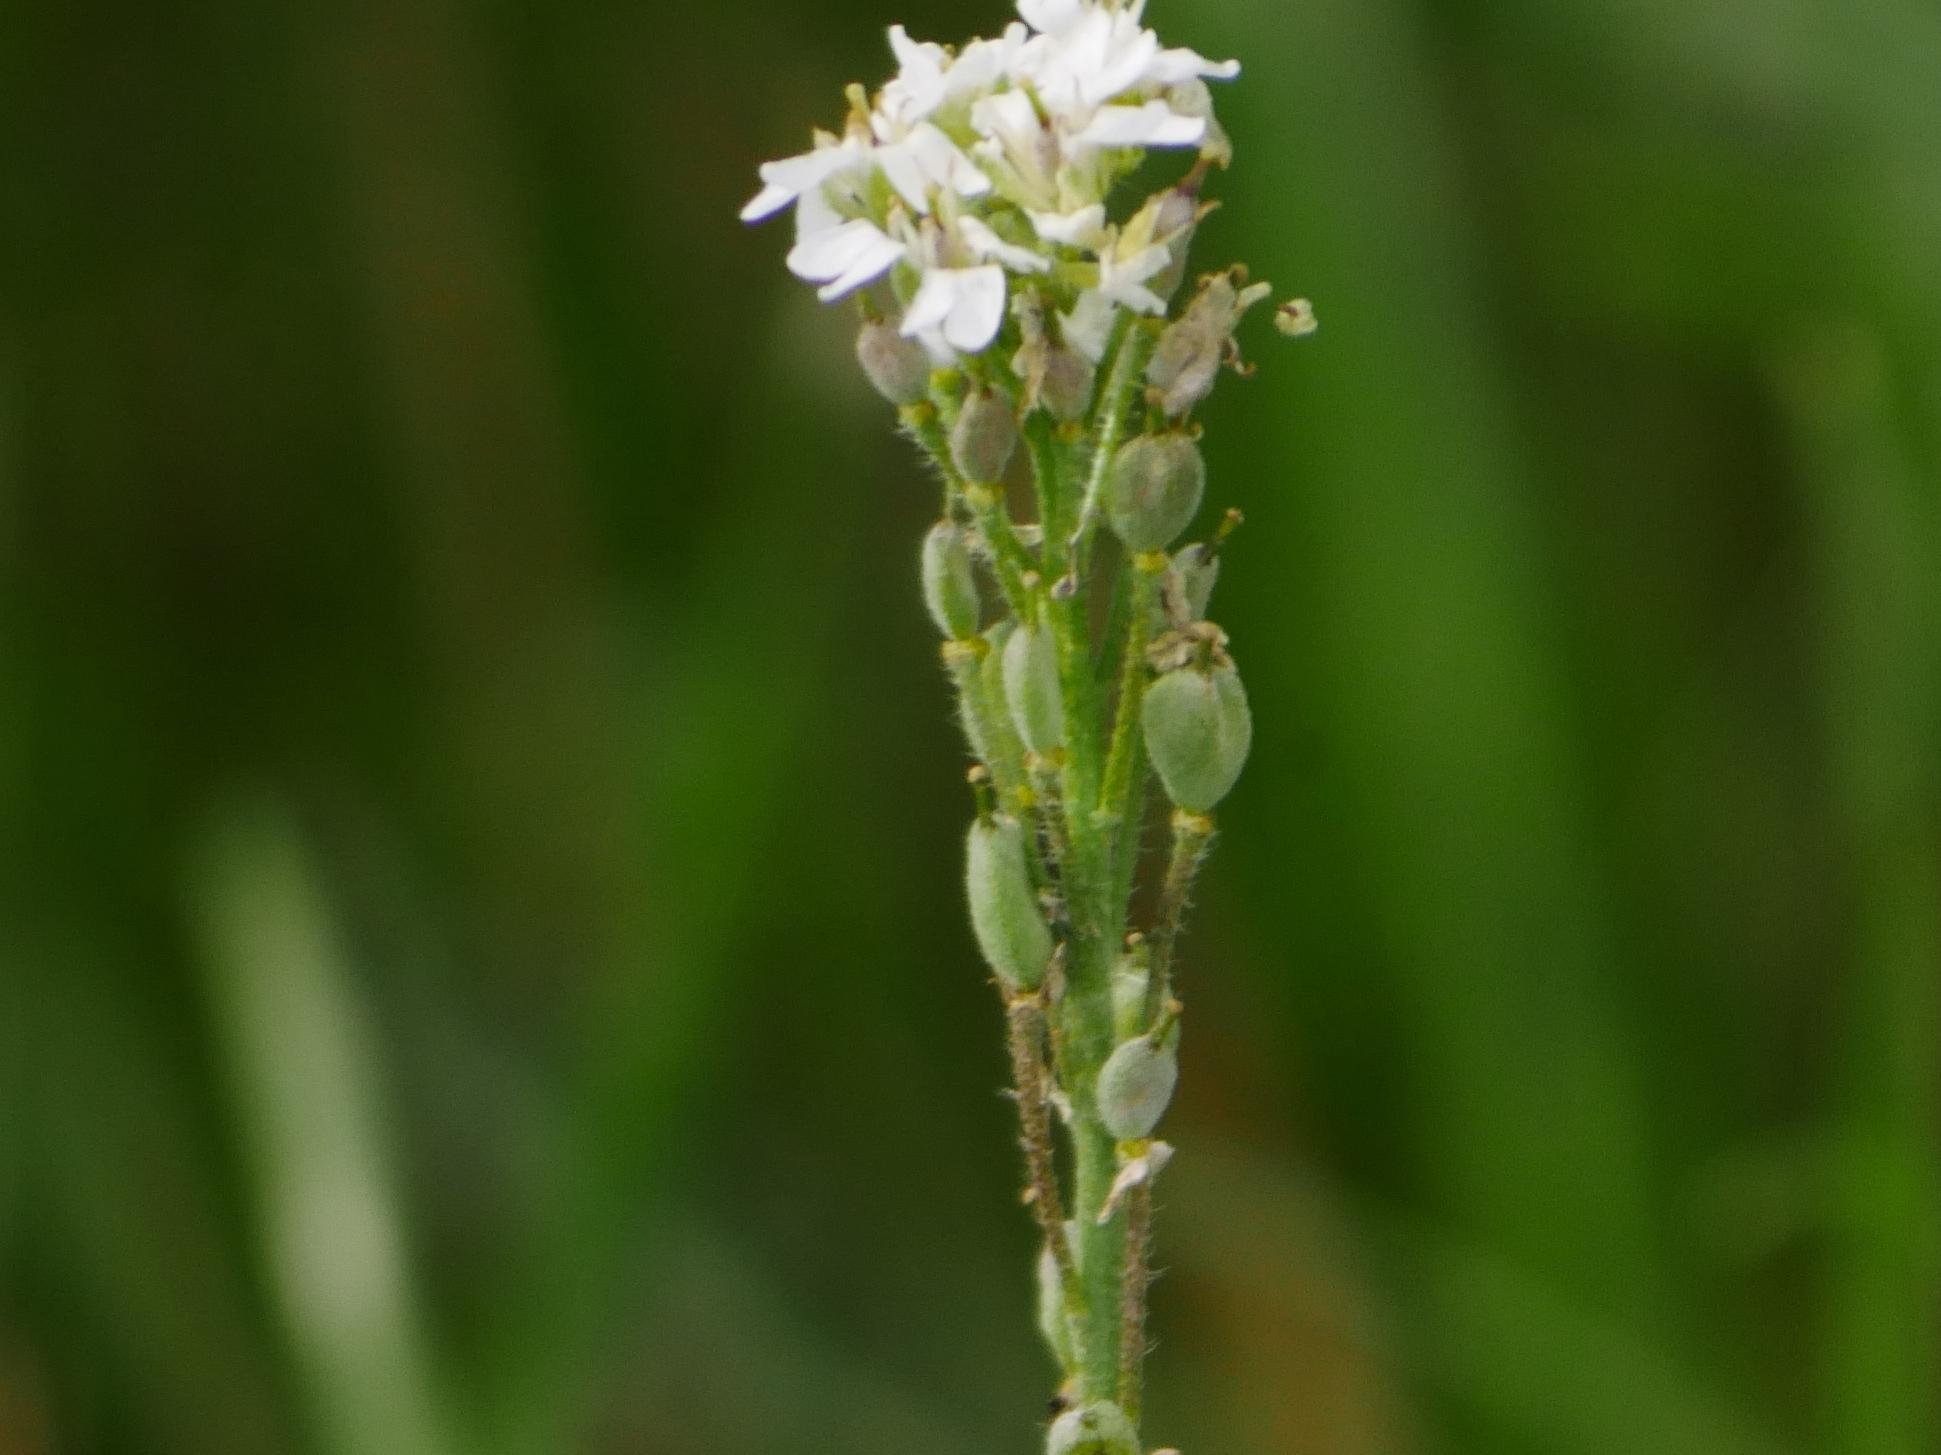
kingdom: Plantae
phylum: Tracheophyta
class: Magnoliopsida
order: Brassicales
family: Brassicaceae
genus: Berteroa
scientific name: Berteroa incana
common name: Hoary alison
